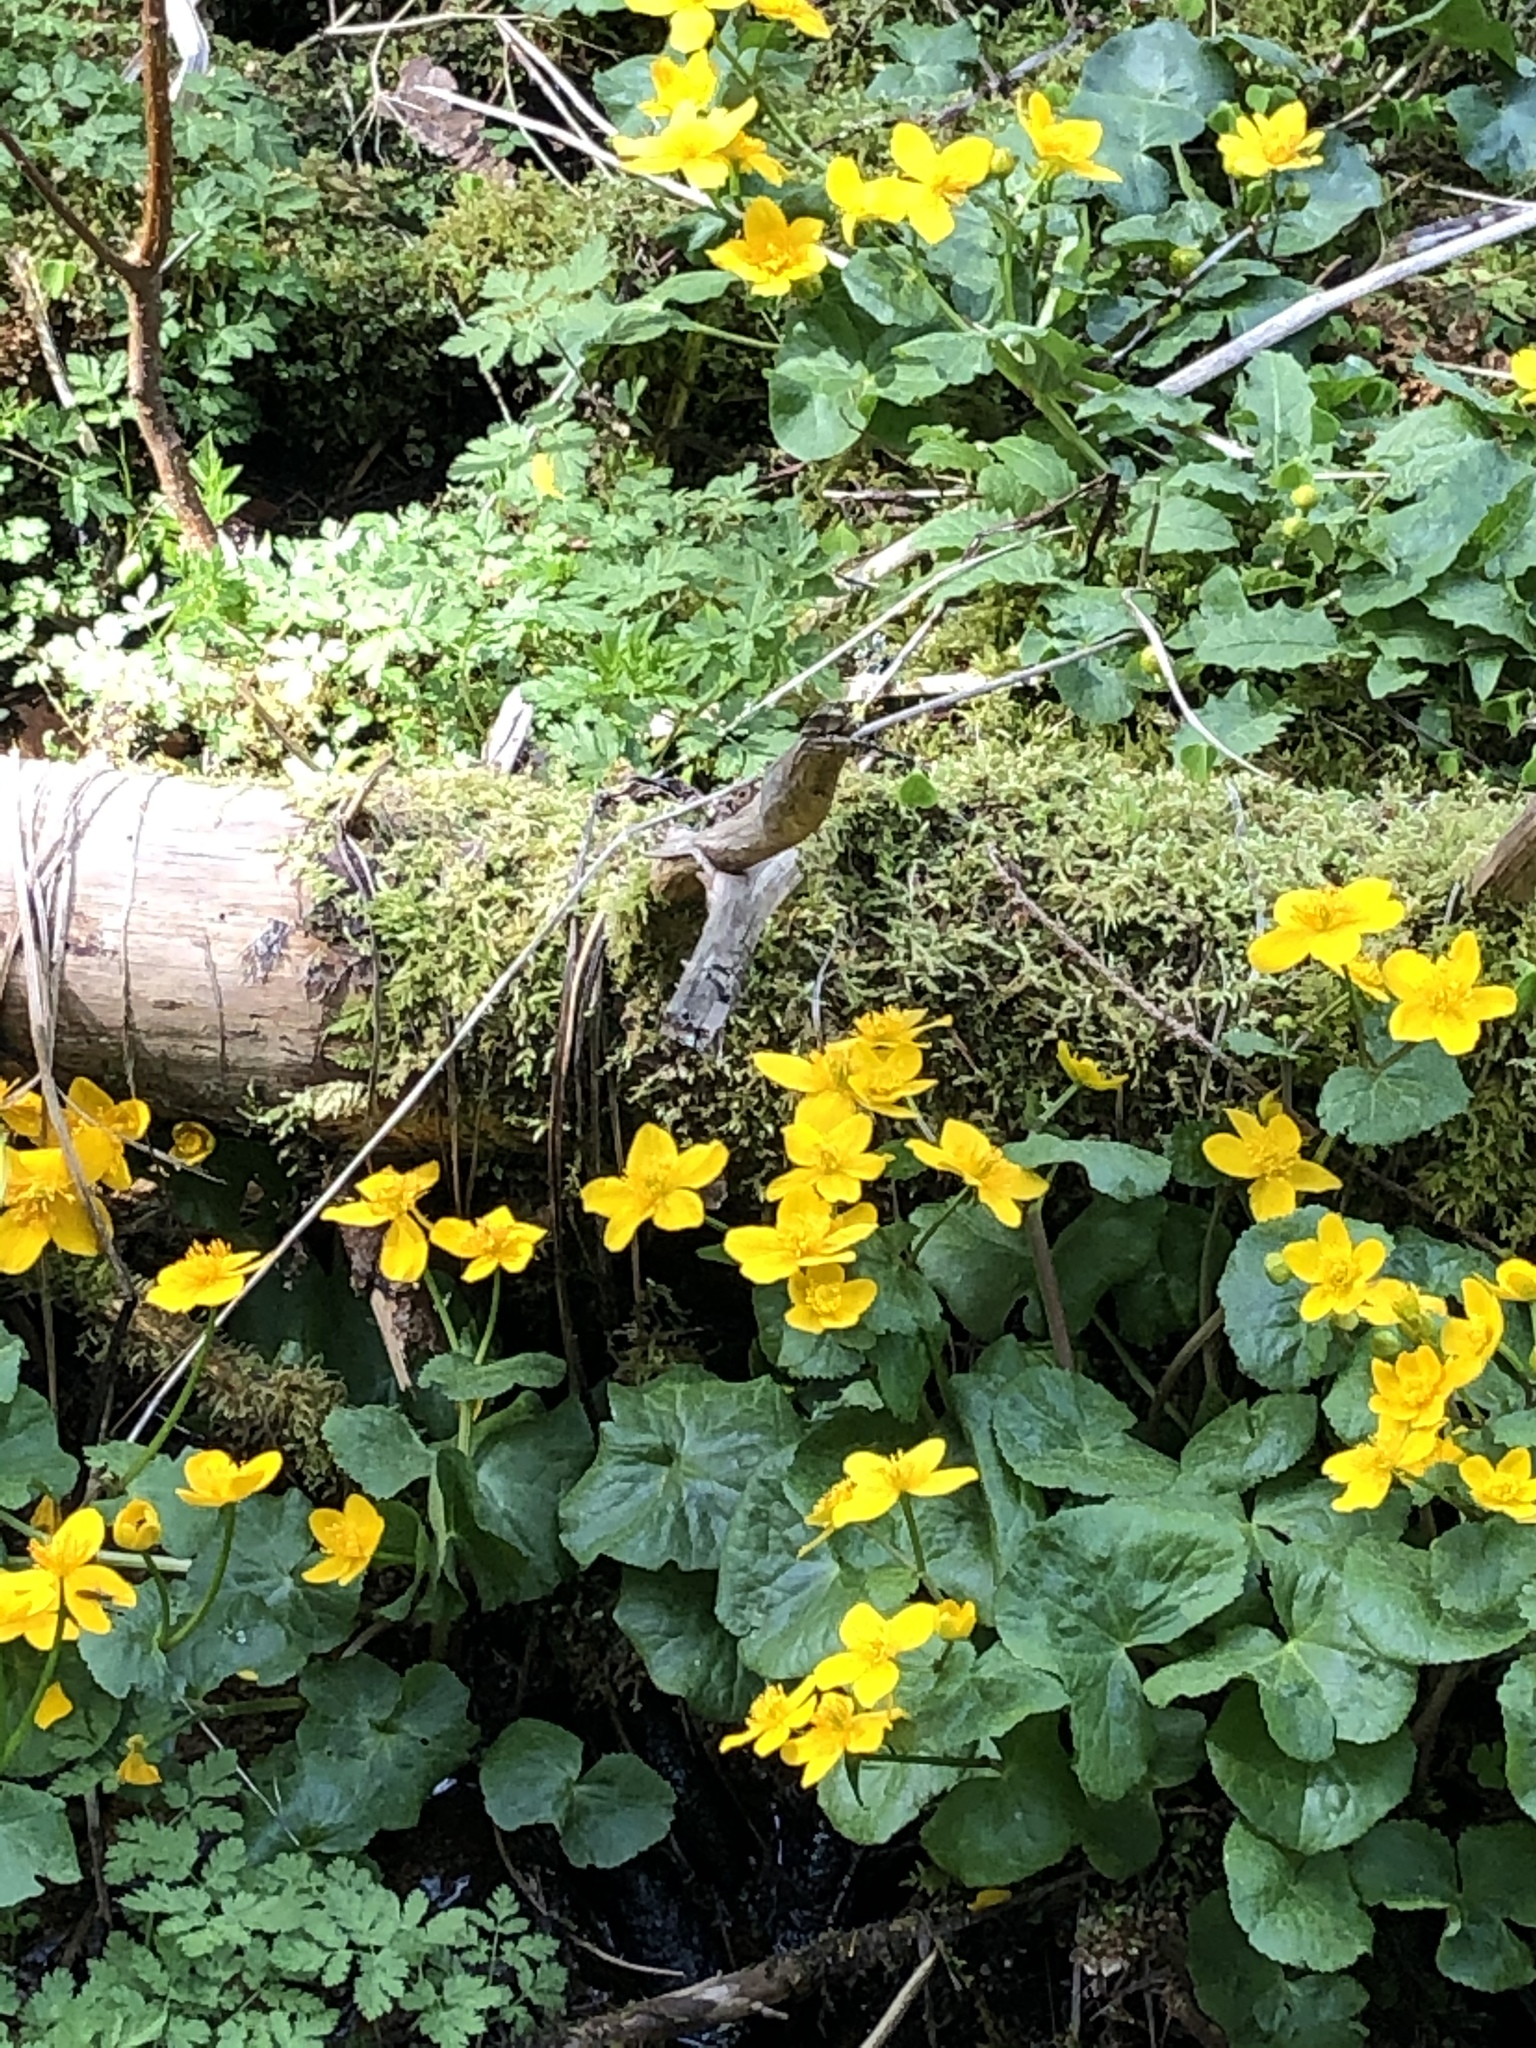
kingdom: Plantae
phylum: Tracheophyta
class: Magnoliopsida
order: Ranunculales
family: Ranunculaceae
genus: Caltha
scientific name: Caltha palustris
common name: Marsh marigold
